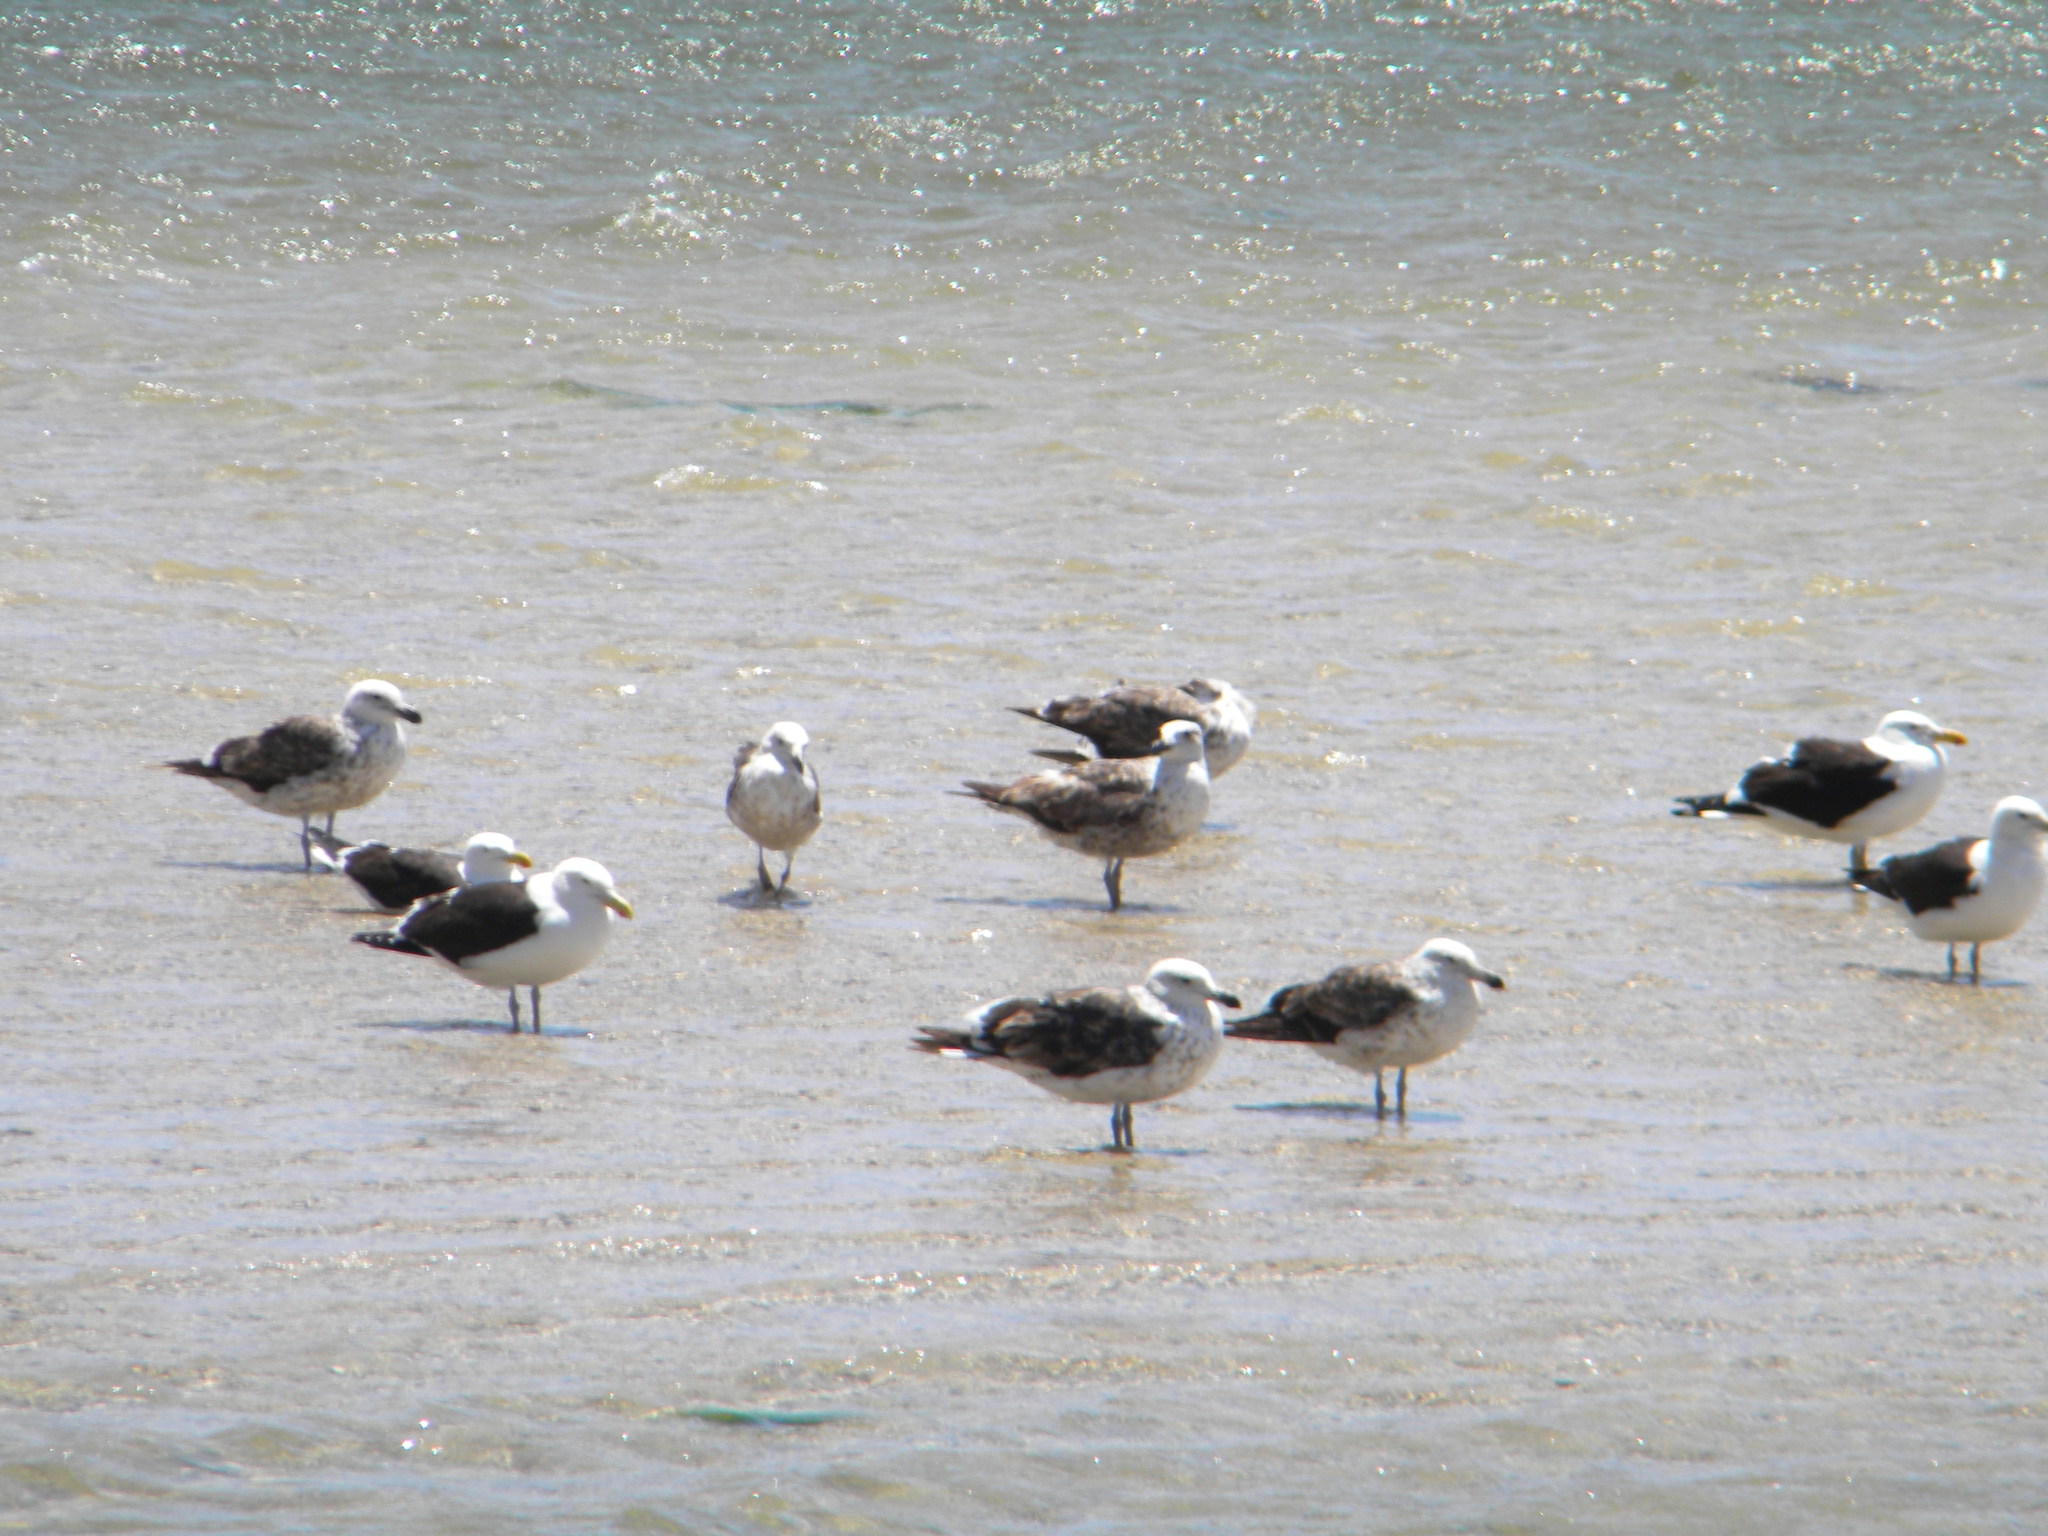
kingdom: Animalia
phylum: Chordata
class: Aves
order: Charadriiformes
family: Laridae
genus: Larus
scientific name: Larus dominicanus
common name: Kelp gull
